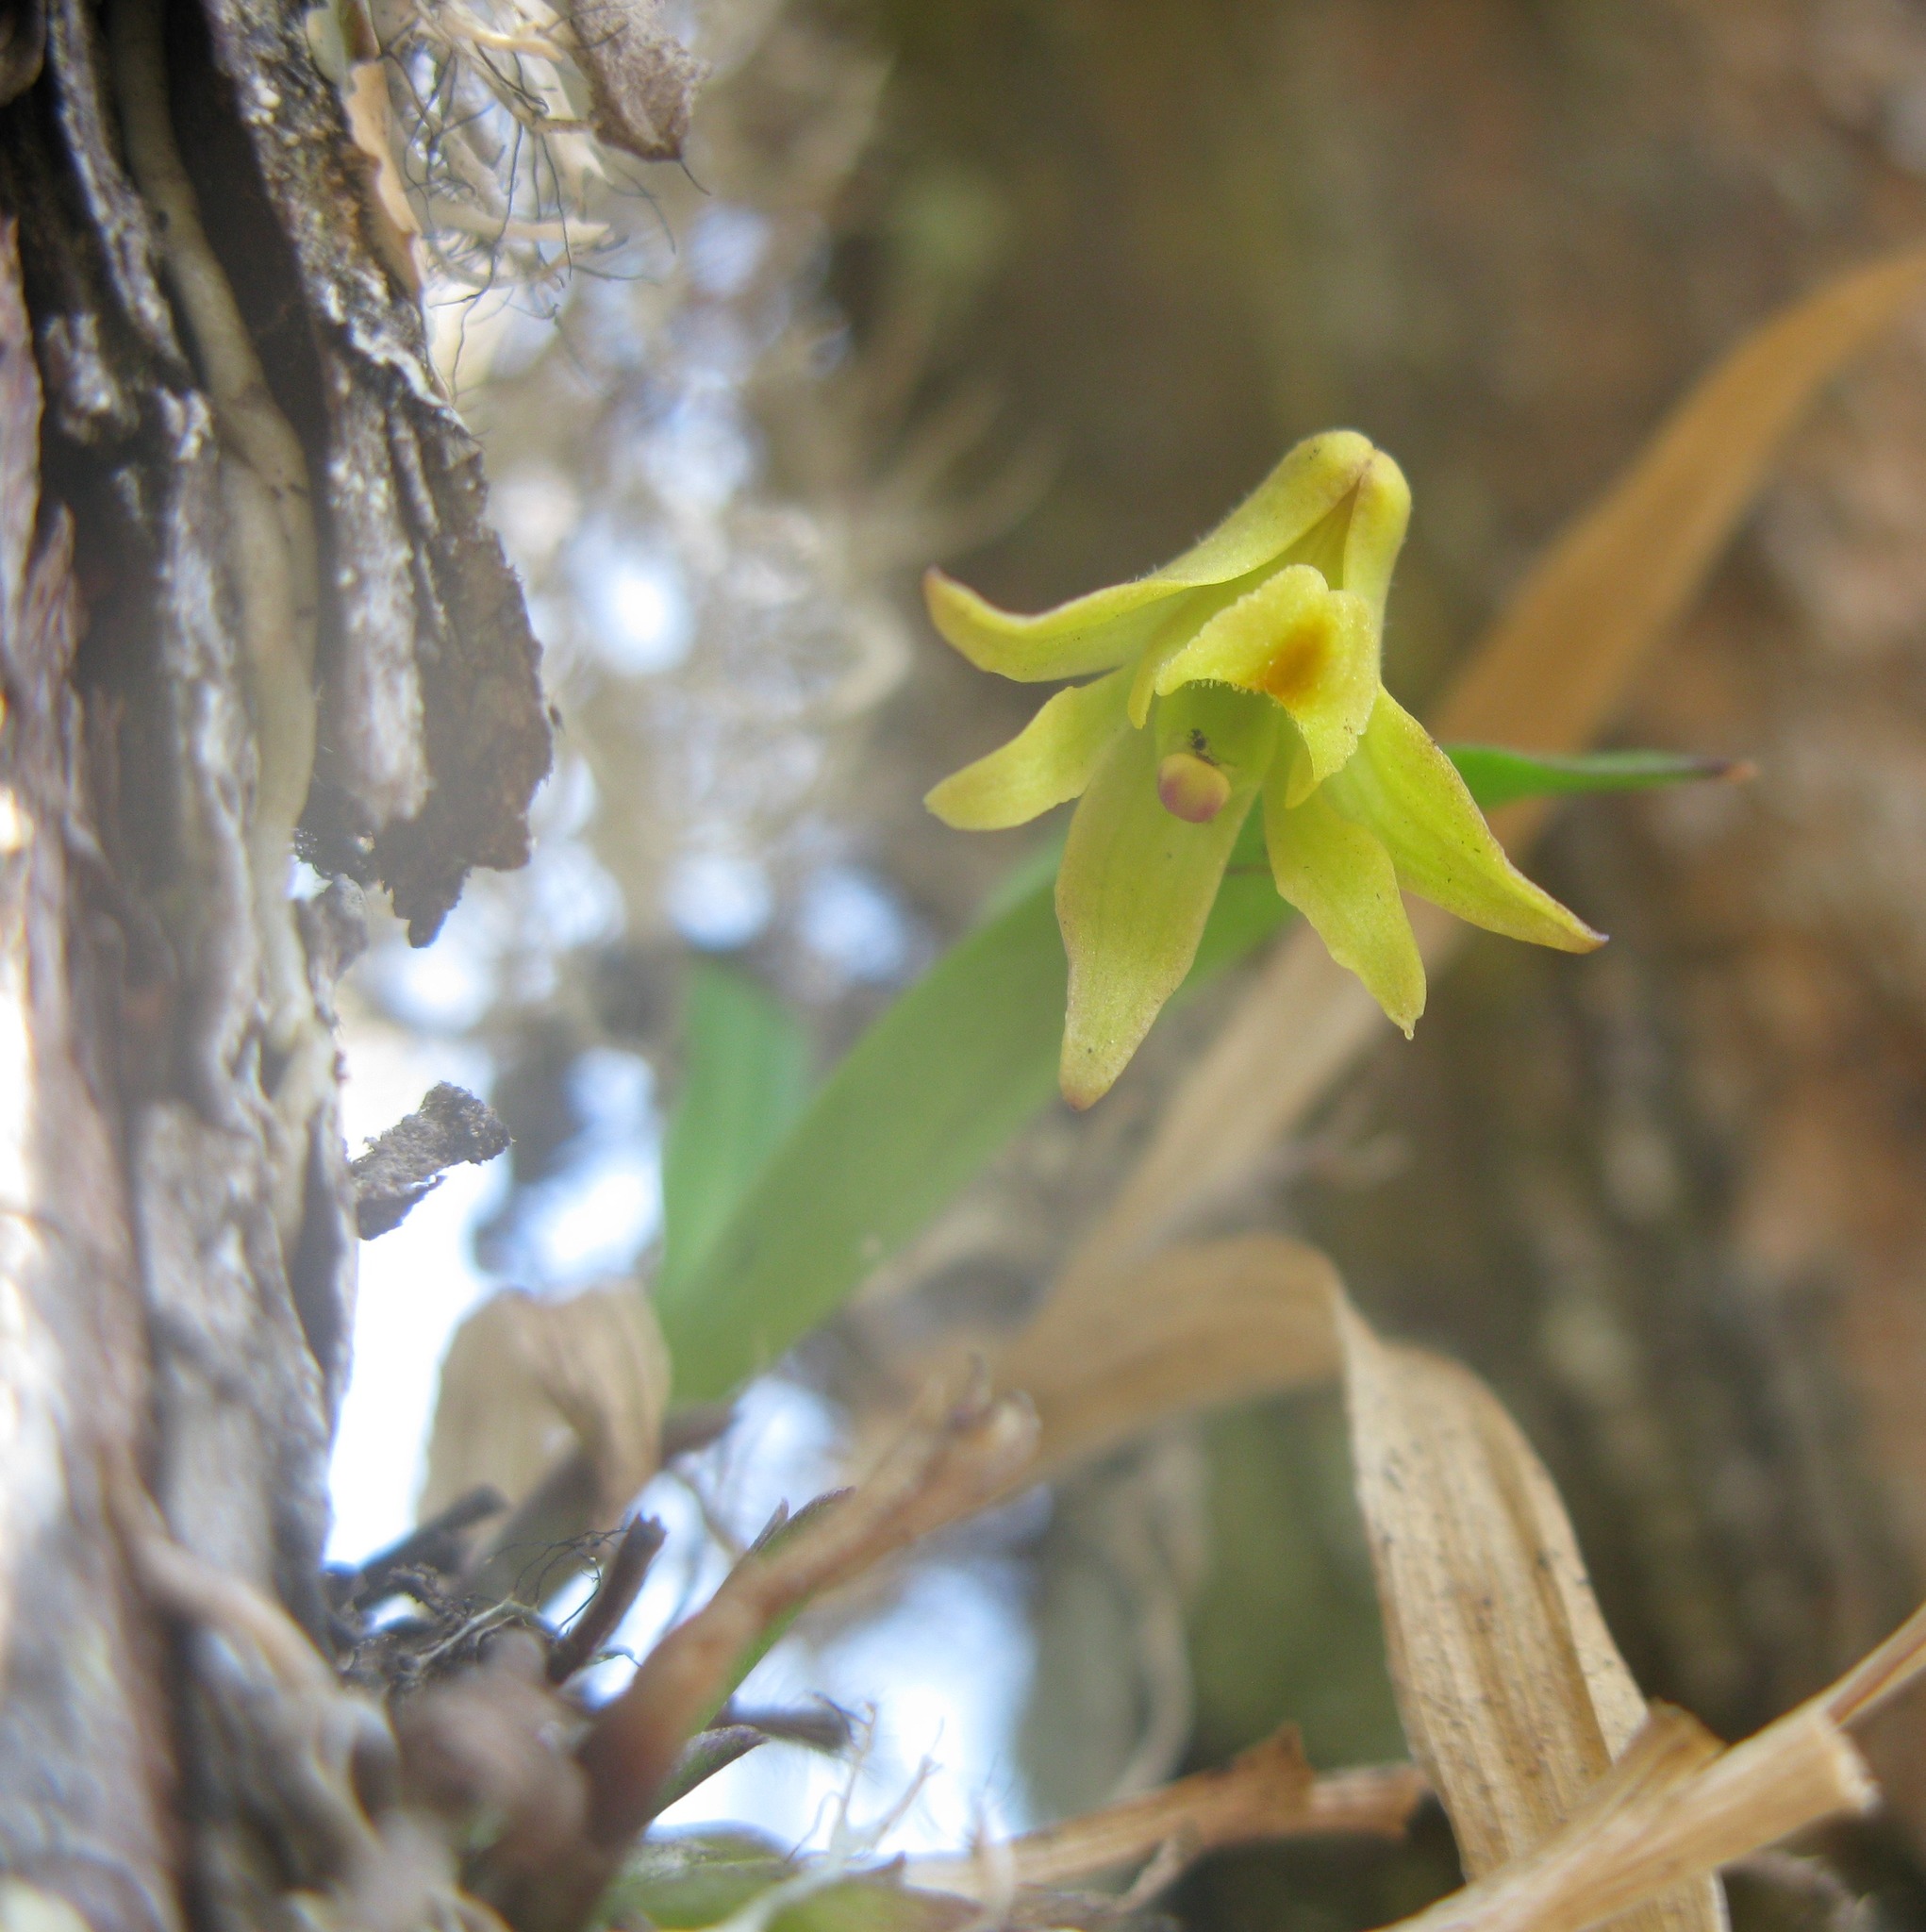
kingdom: Plantae
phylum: Tracheophyta
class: Liliopsida
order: Asparagales
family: Orchidaceae
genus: Polystachya
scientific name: Polystachya ottoniana
